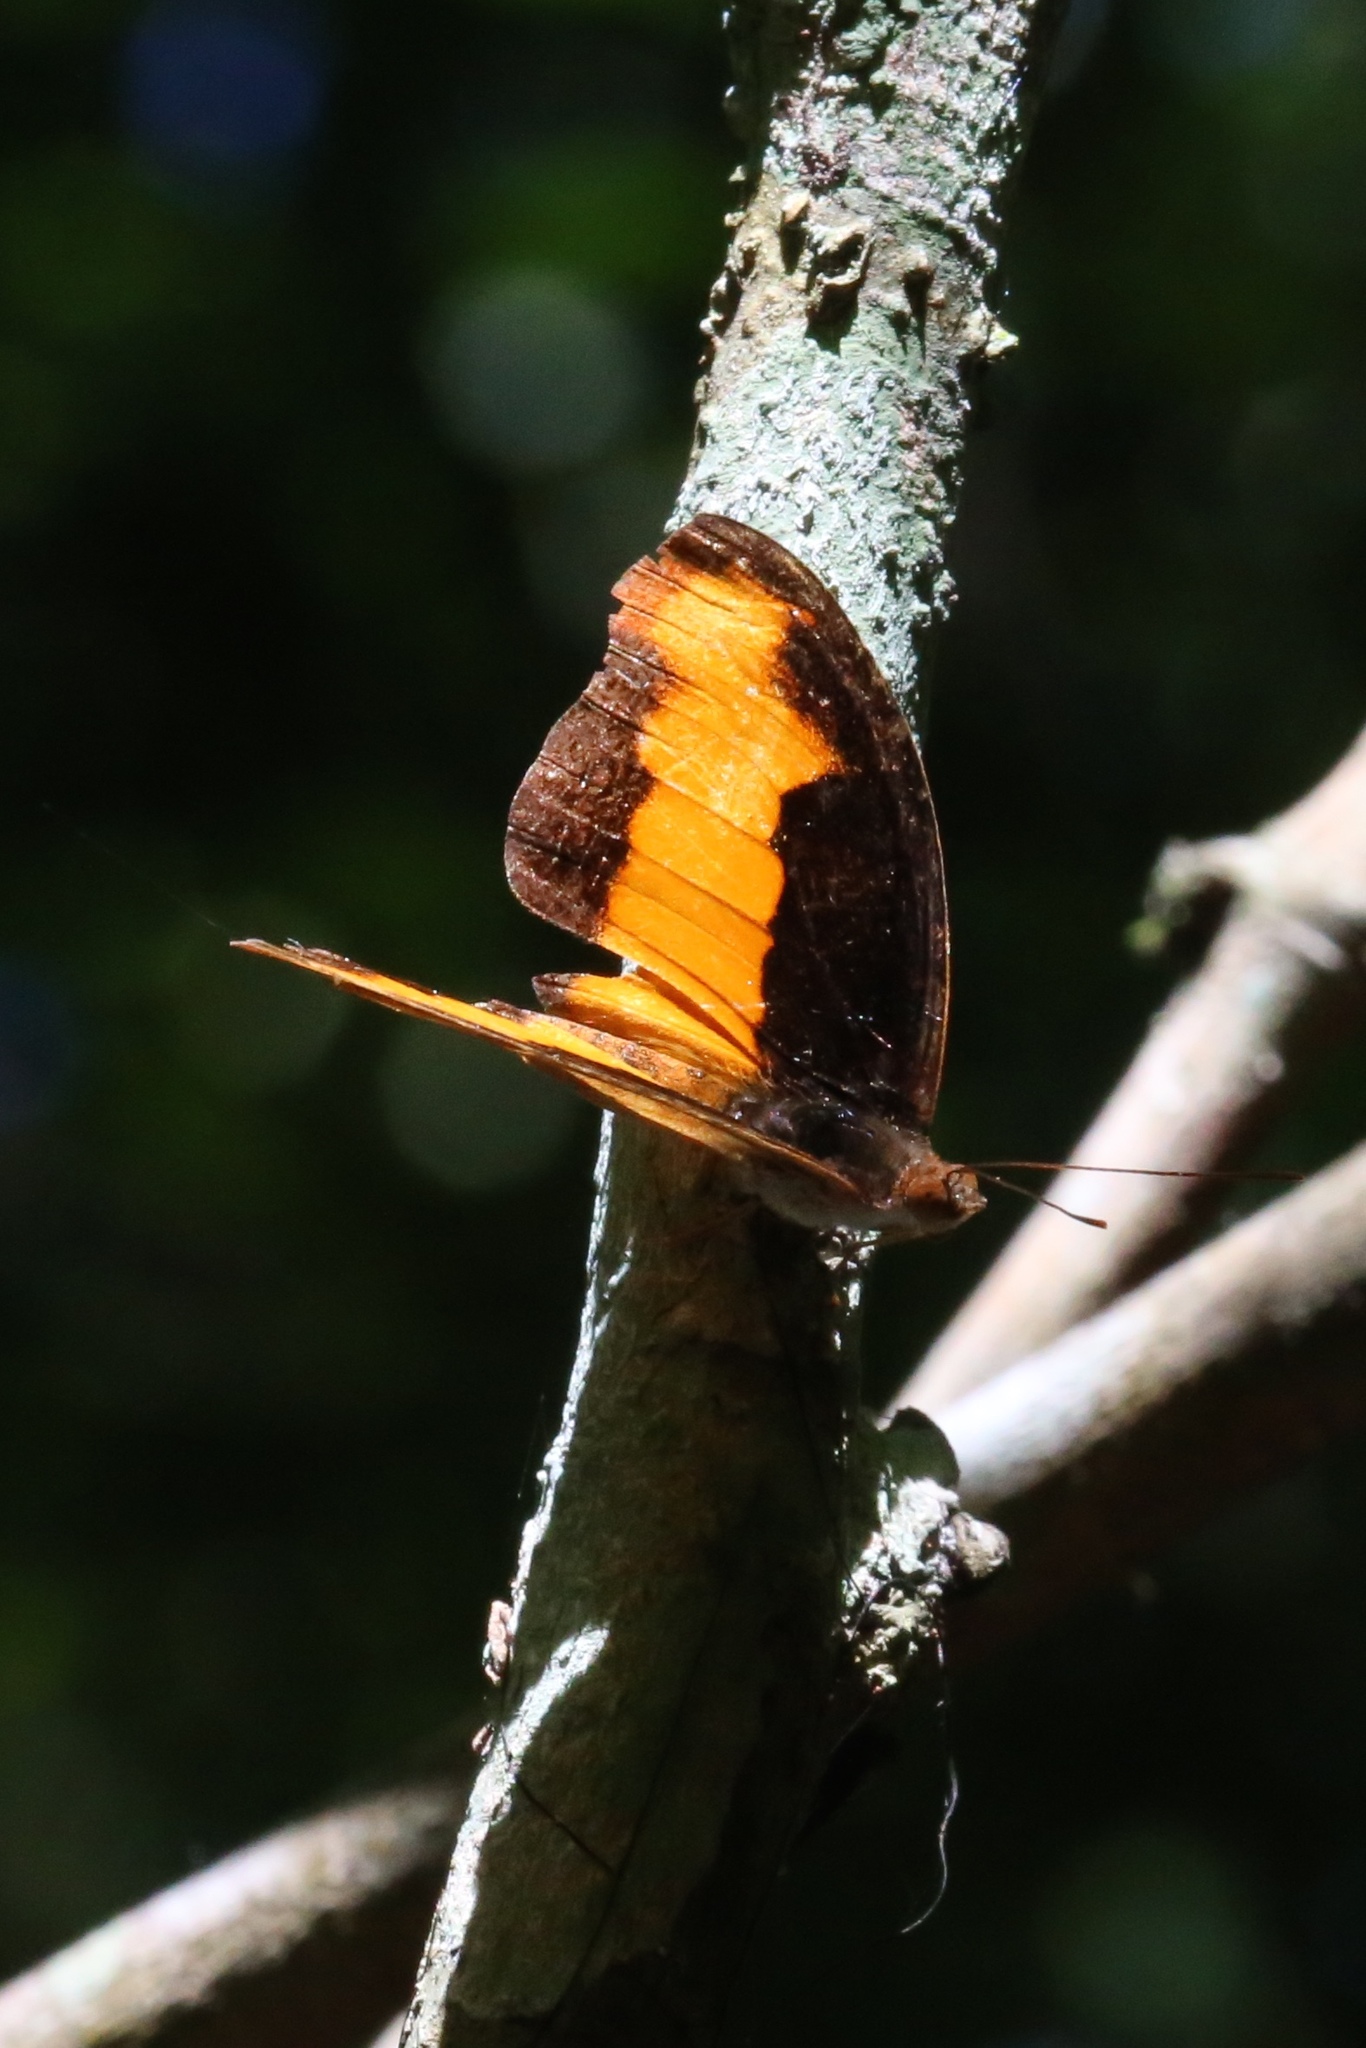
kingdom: Animalia
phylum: Arthropoda
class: Insecta
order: Lepidoptera
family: Nymphalidae
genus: Catonephele
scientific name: Catonephele
